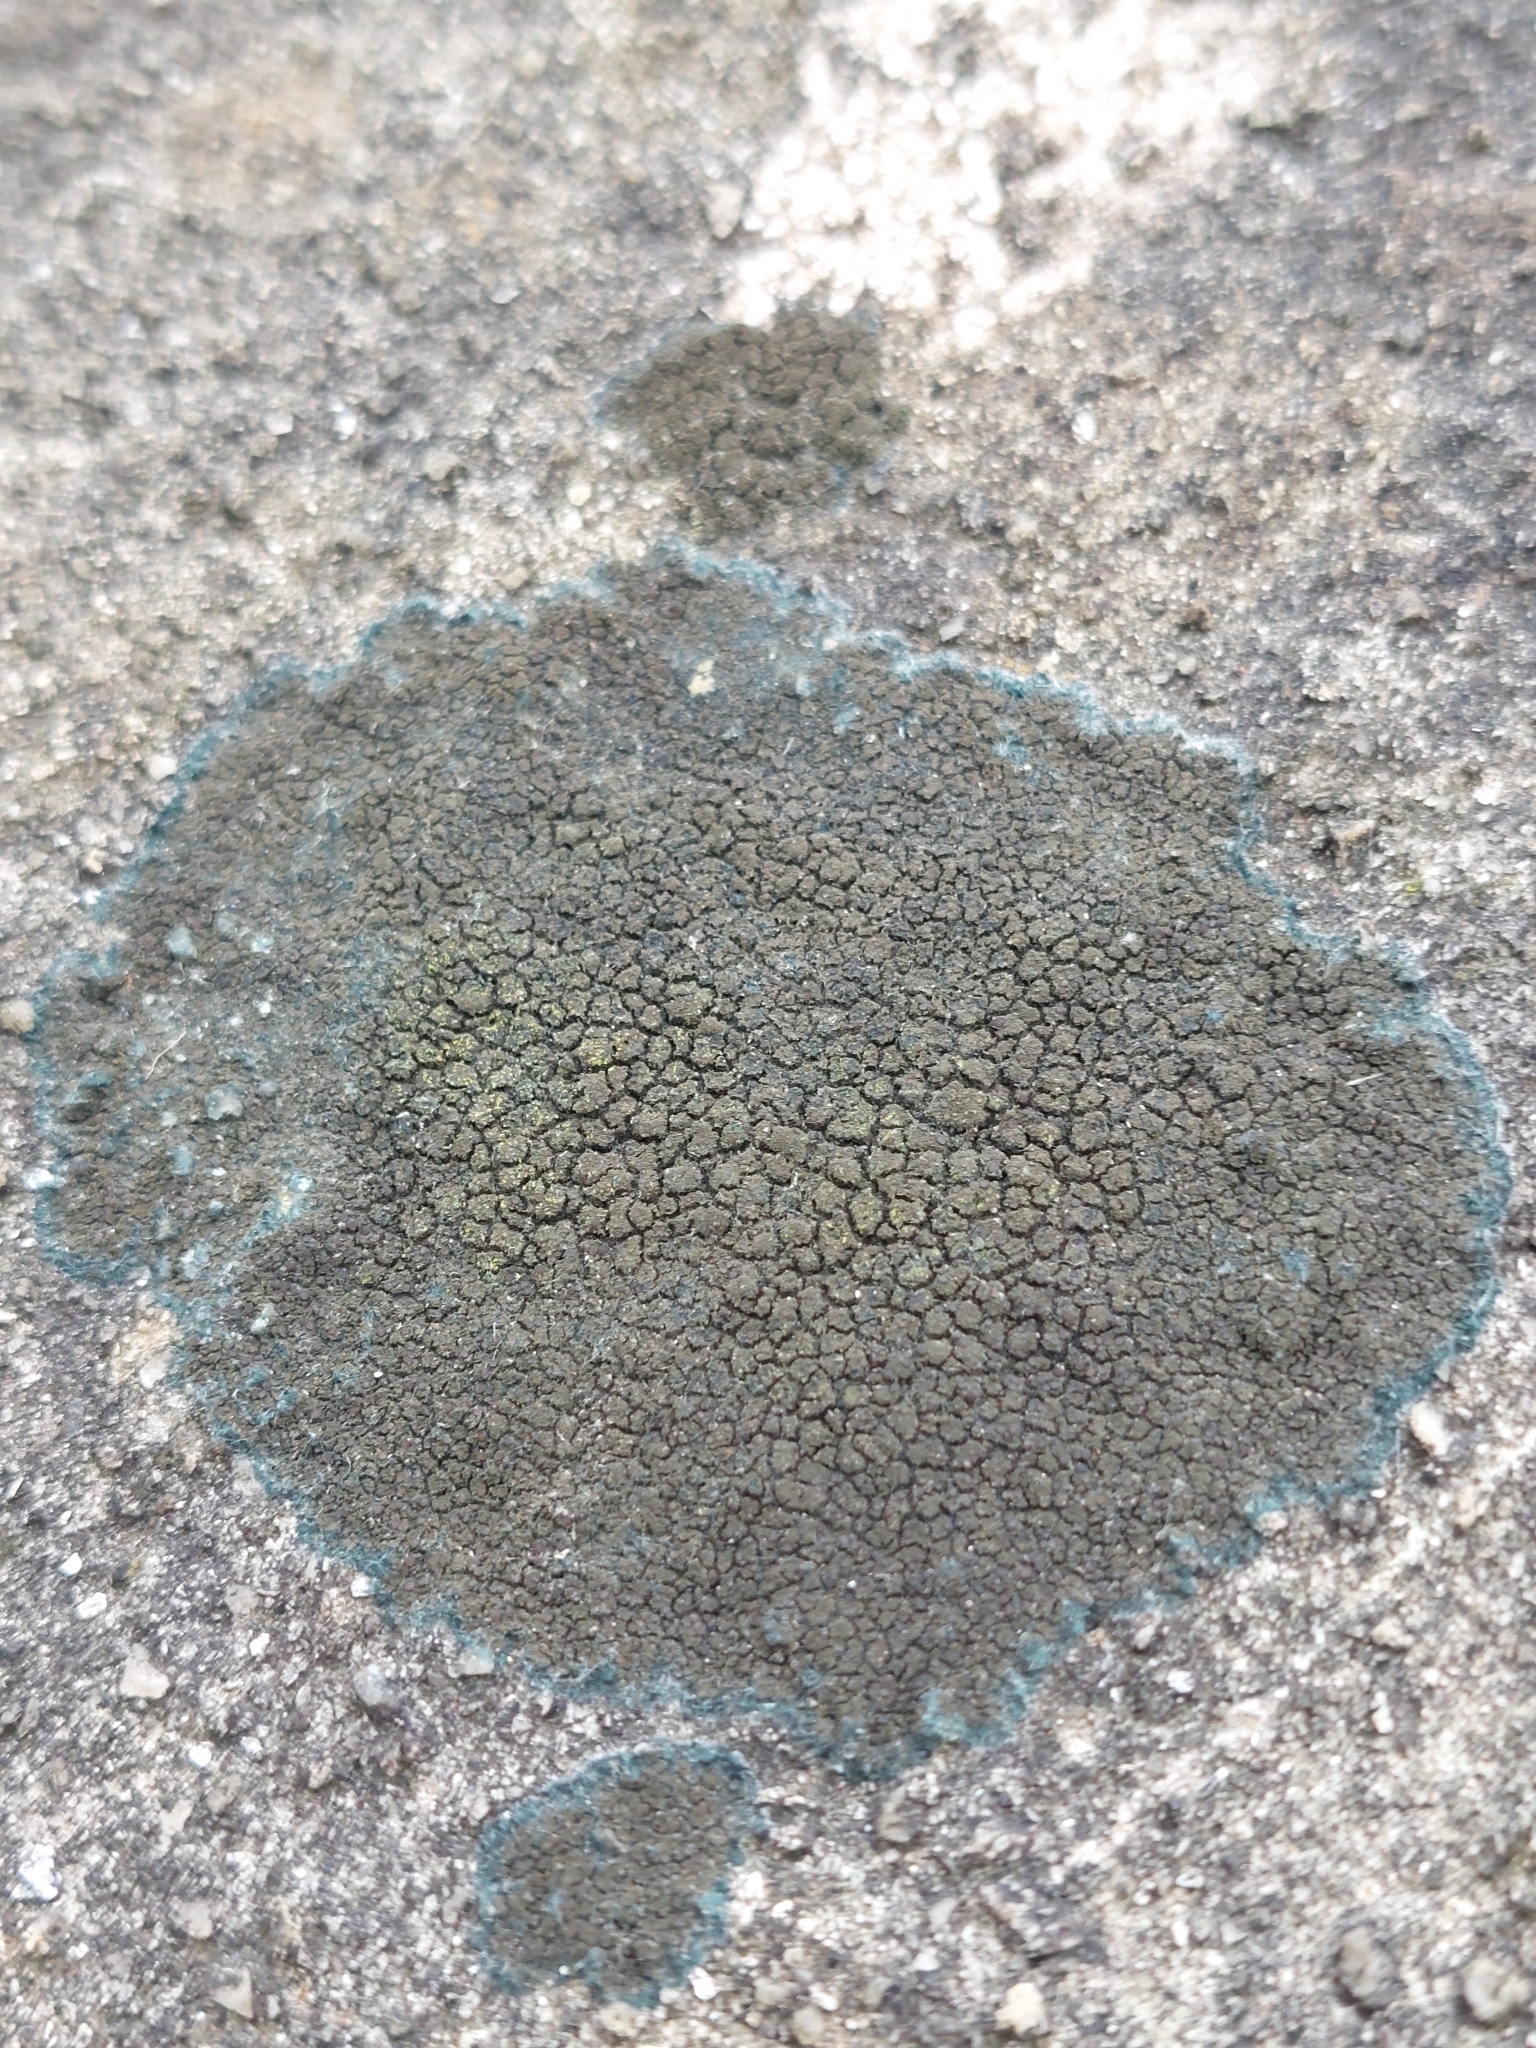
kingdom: Fungi
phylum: Ascomycota
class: Lecanoromycetes
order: Peltigerales
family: Placynthiaceae
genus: Placynthium
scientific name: Placynthium nigrum
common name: Blackthread lichen
